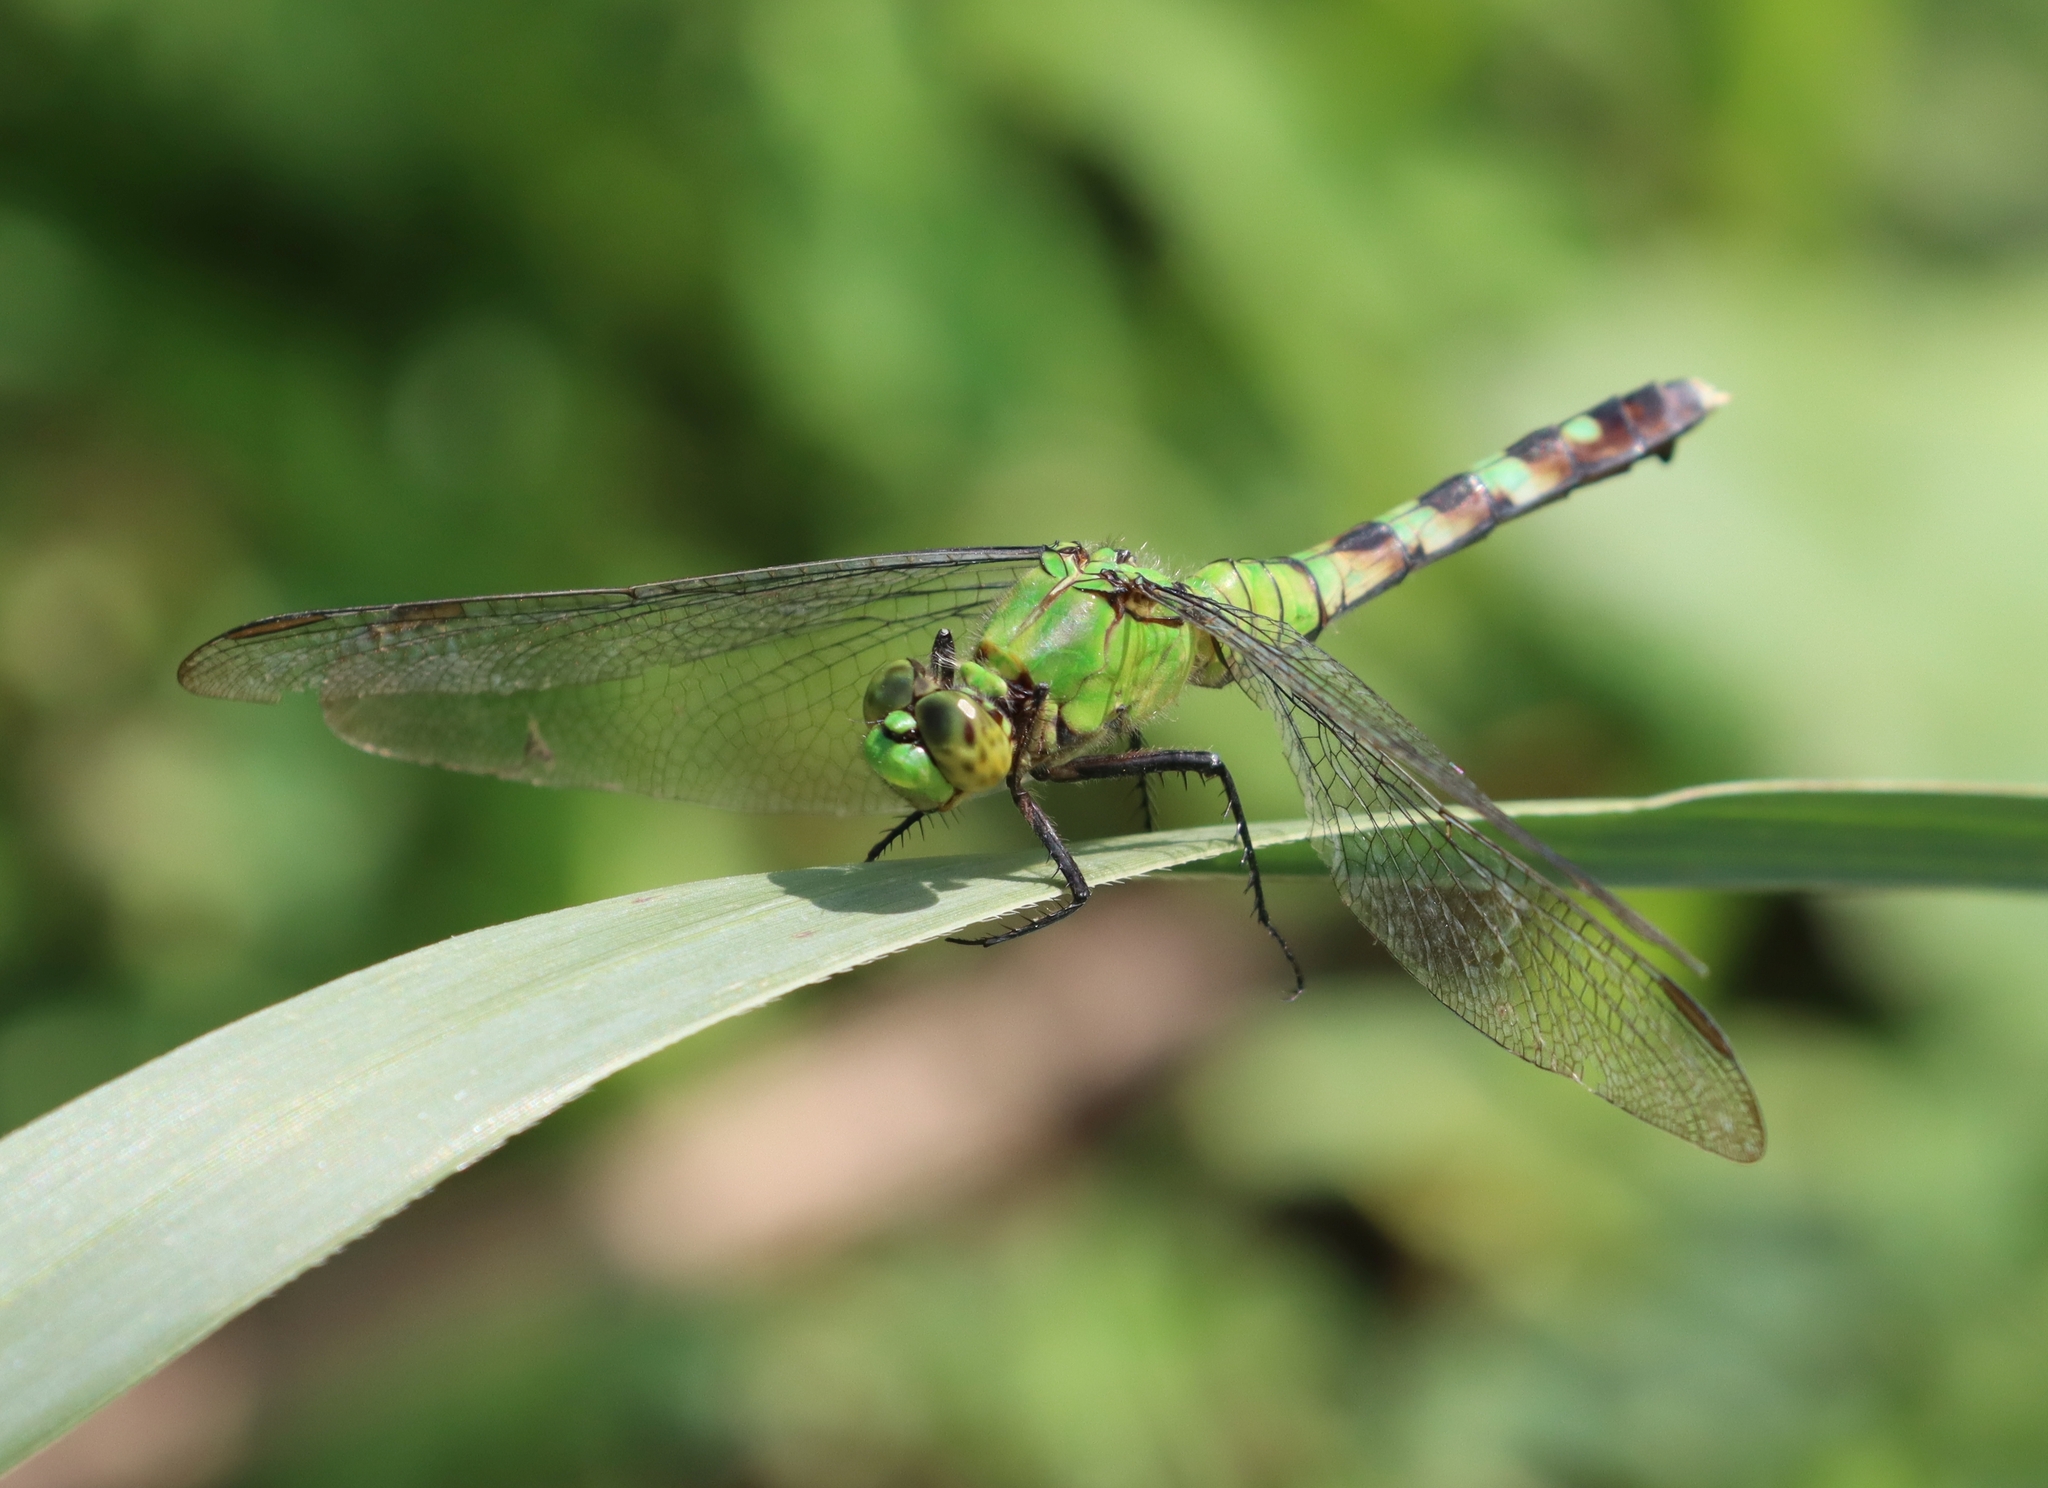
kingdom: Animalia
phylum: Arthropoda
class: Insecta
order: Odonata
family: Libellulidae
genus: Erythemis
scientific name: Erythemis simplicicollis
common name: Eastern pondhawk
